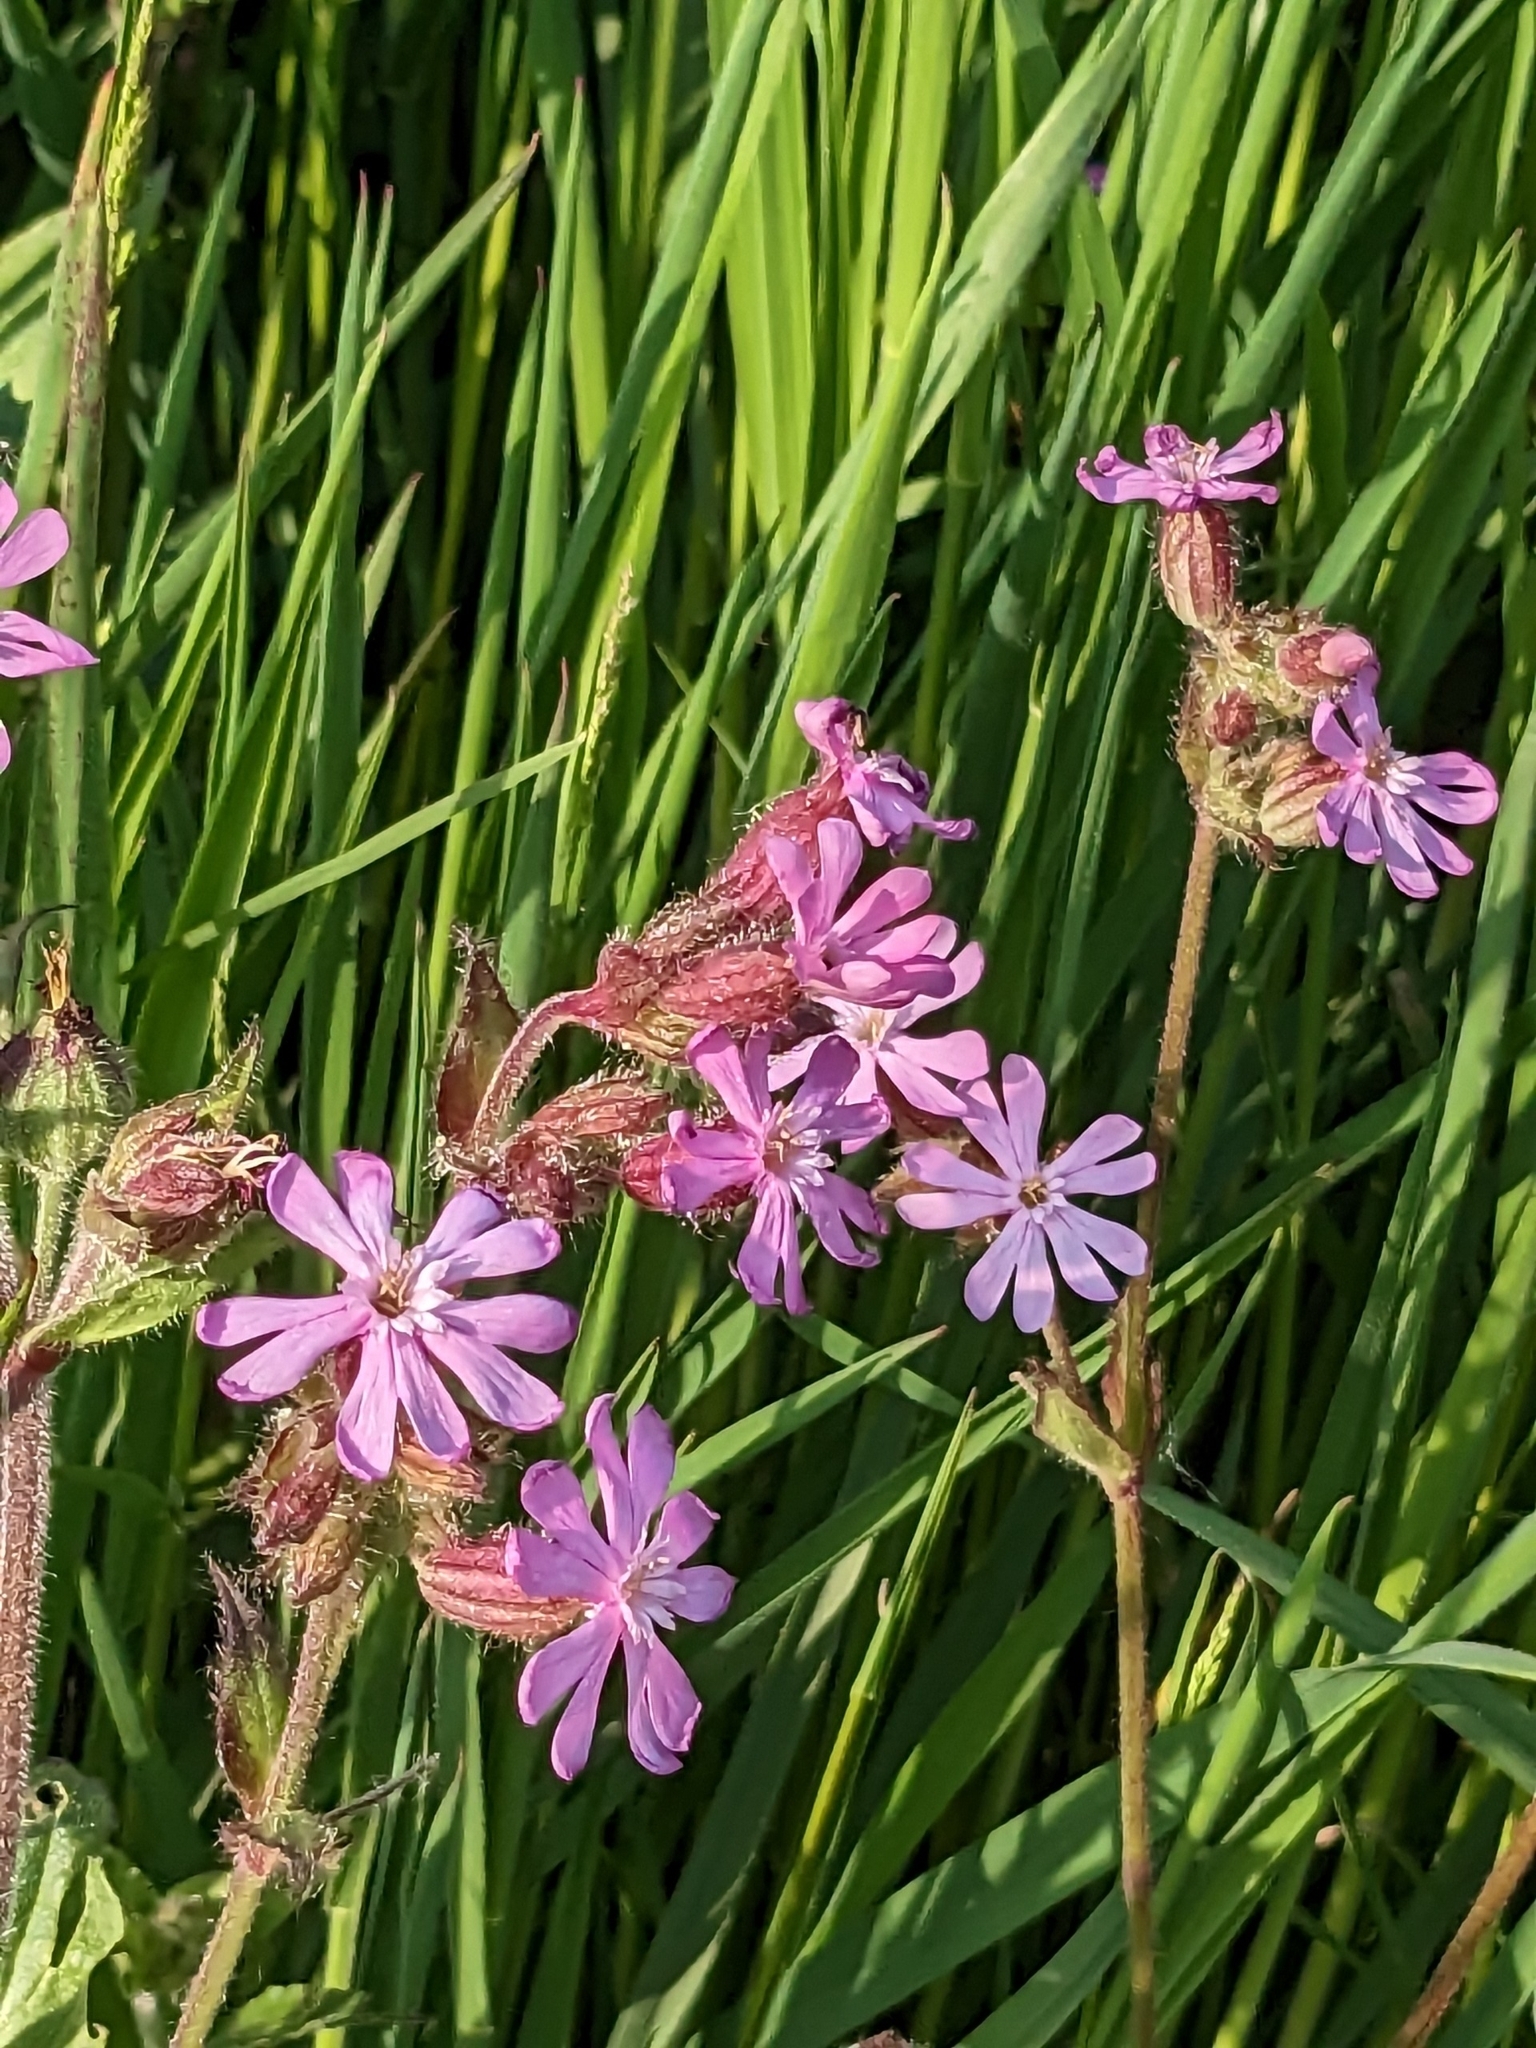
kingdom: Plantae
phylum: Tracheophyta
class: Magnoliopsida
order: Caryophyllales
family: Caryophyllaceae
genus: Silene
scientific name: Silene dioica
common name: Red campion
